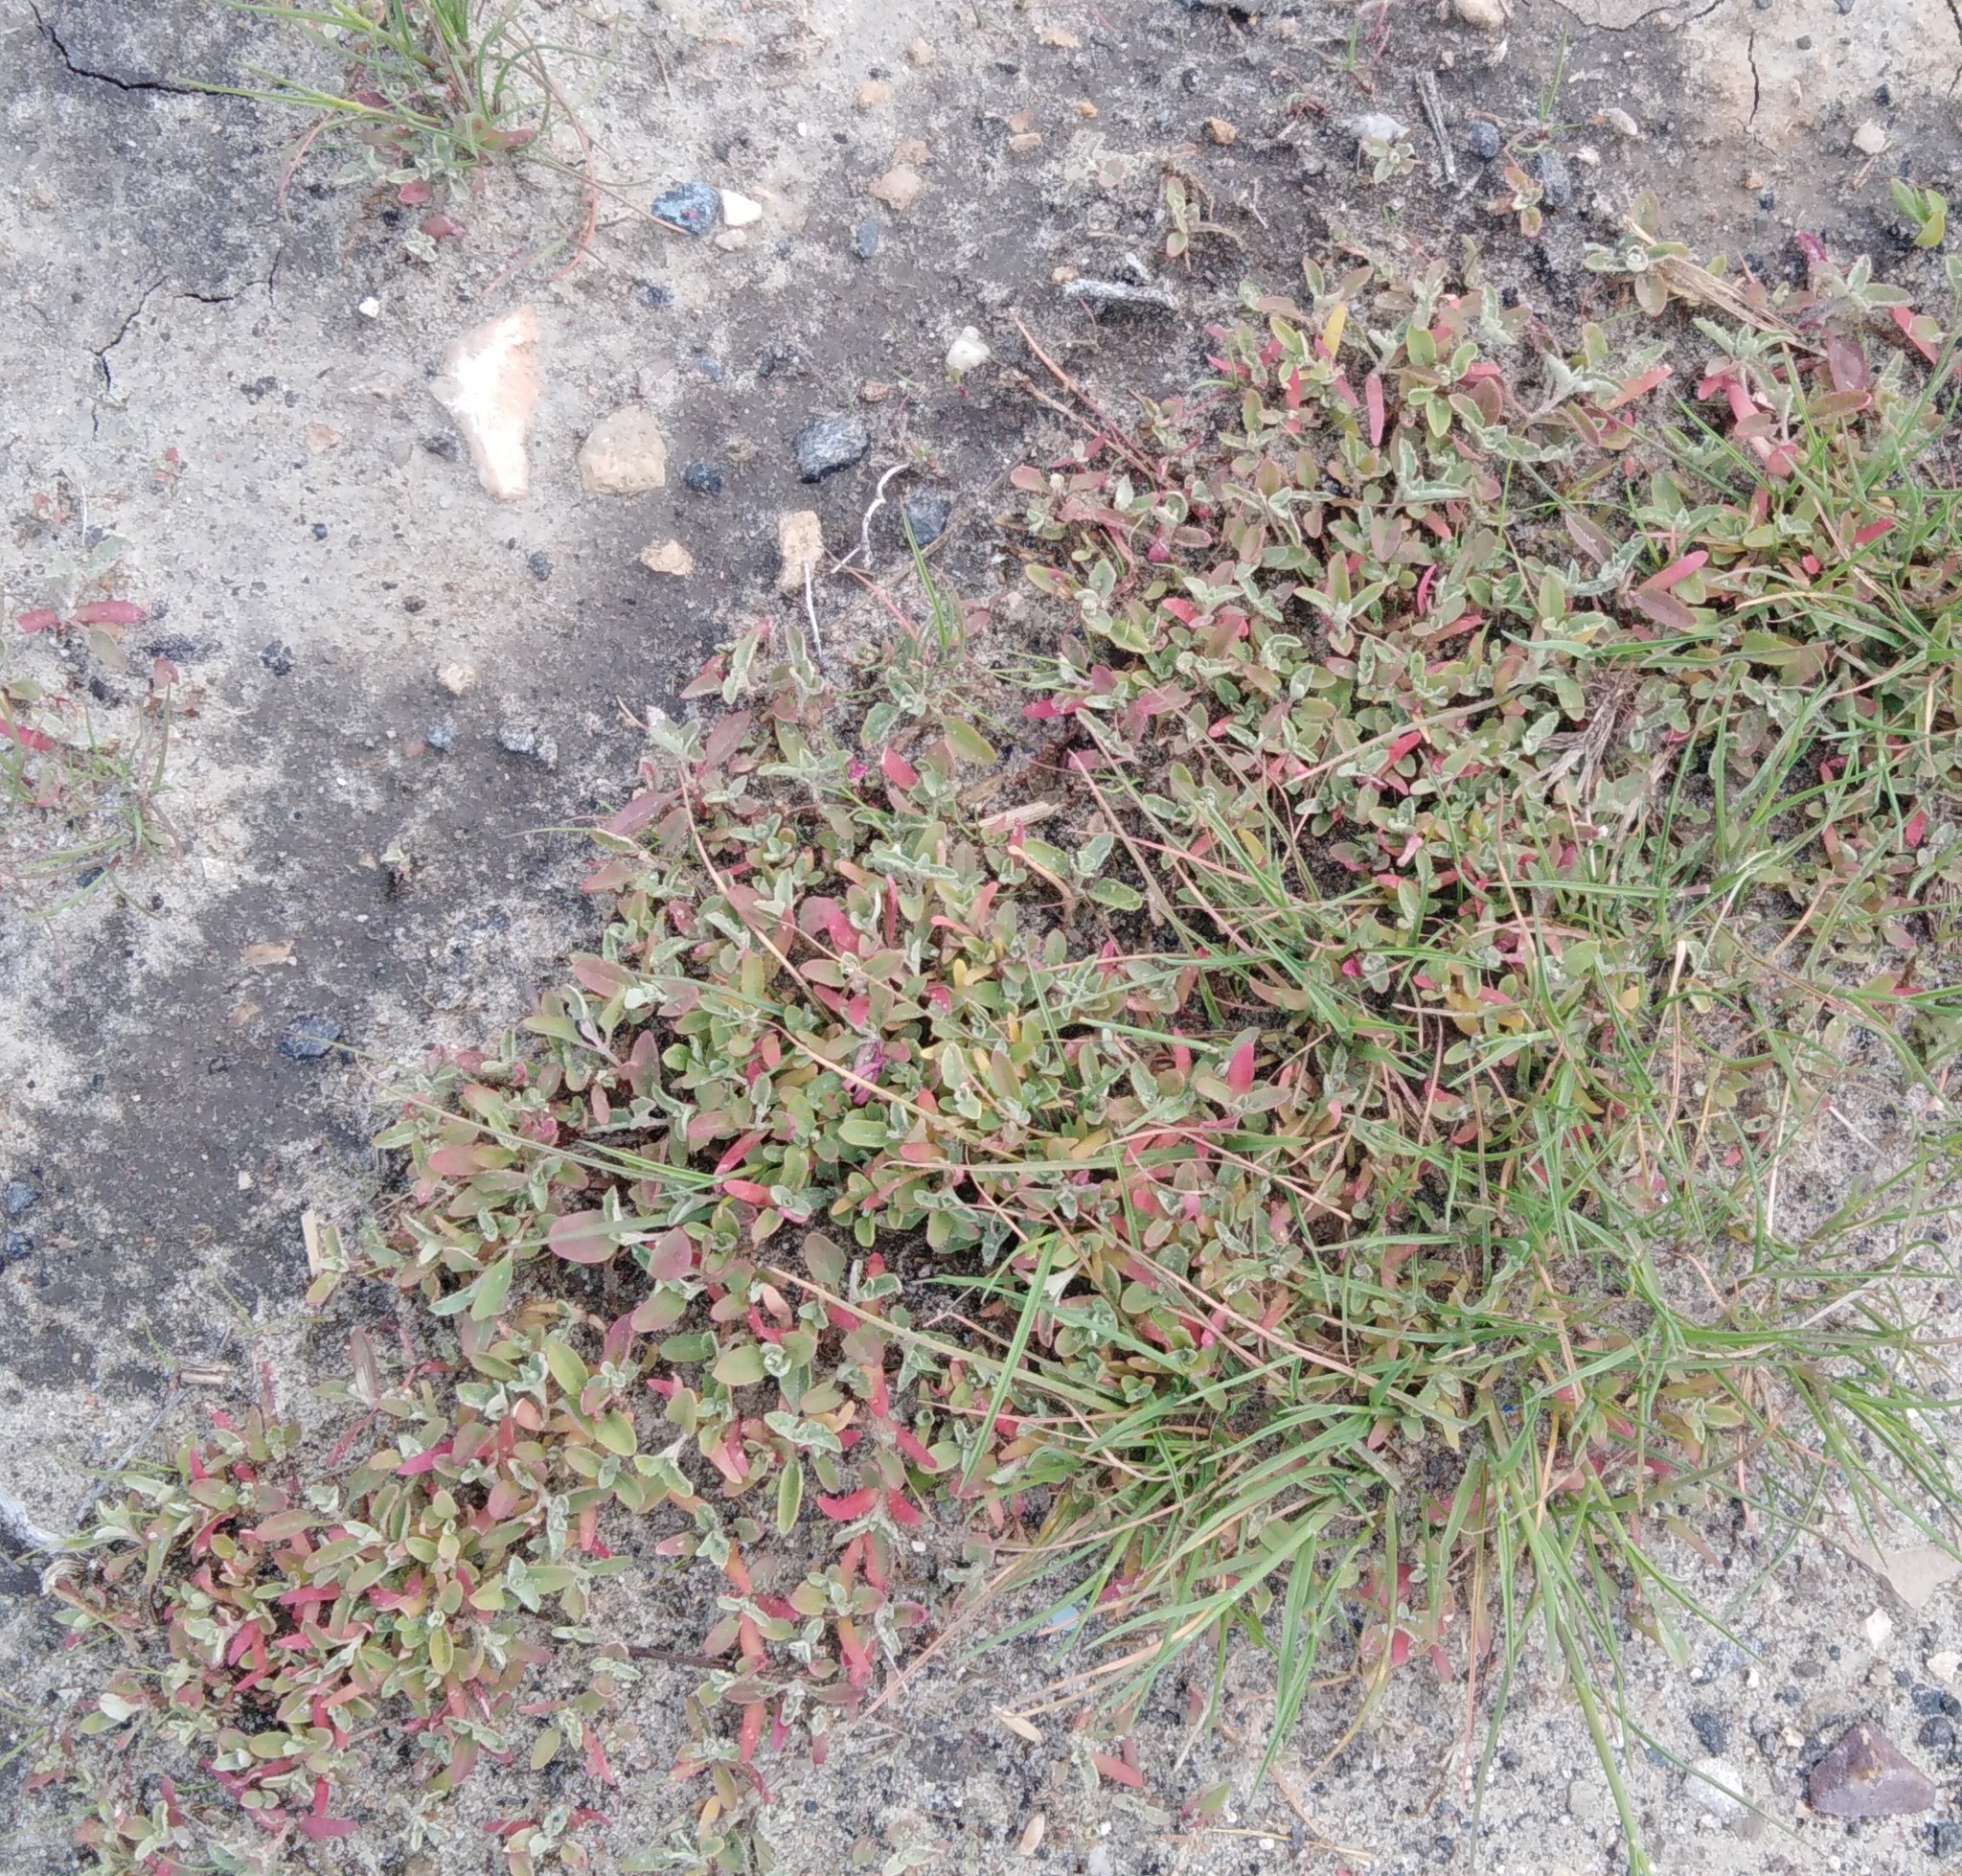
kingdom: Plantae
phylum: Tracheophyta
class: Magnoliopsida
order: Caryophyllales
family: Amaranthaceae
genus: Atriplex
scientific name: Atriplex tatarica
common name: Tatarian orache
